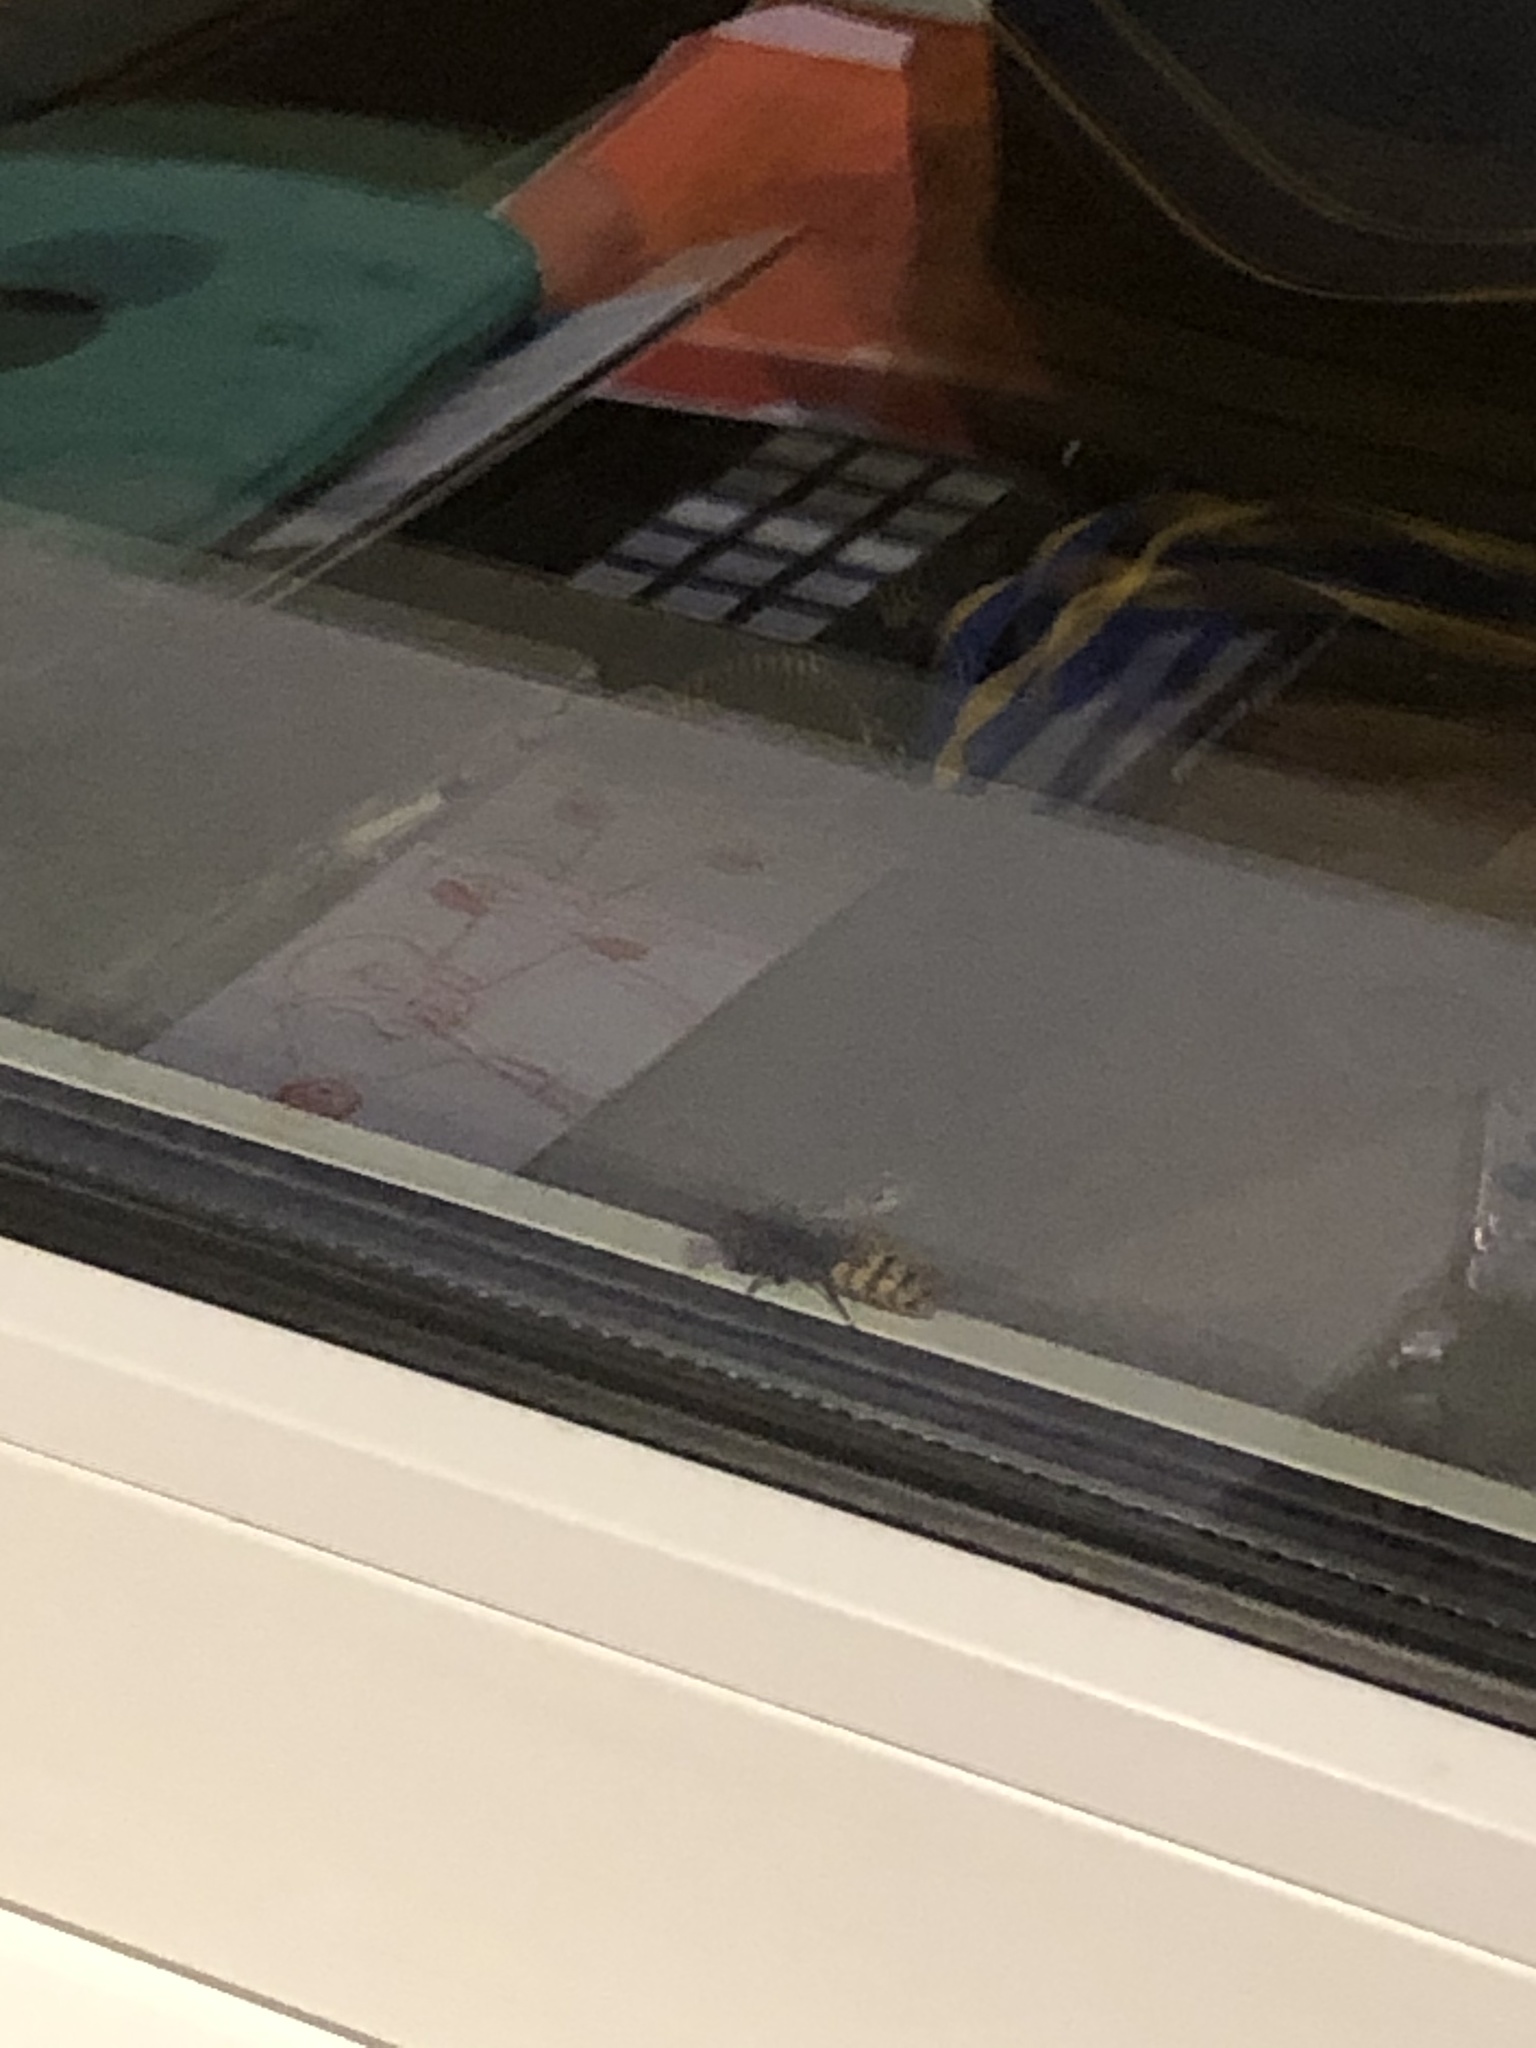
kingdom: Animalia
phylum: Arthropoda
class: Insecta
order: Hymenoptera
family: Vespidae
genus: Vespa
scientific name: Vespa crabro
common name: Hornet
